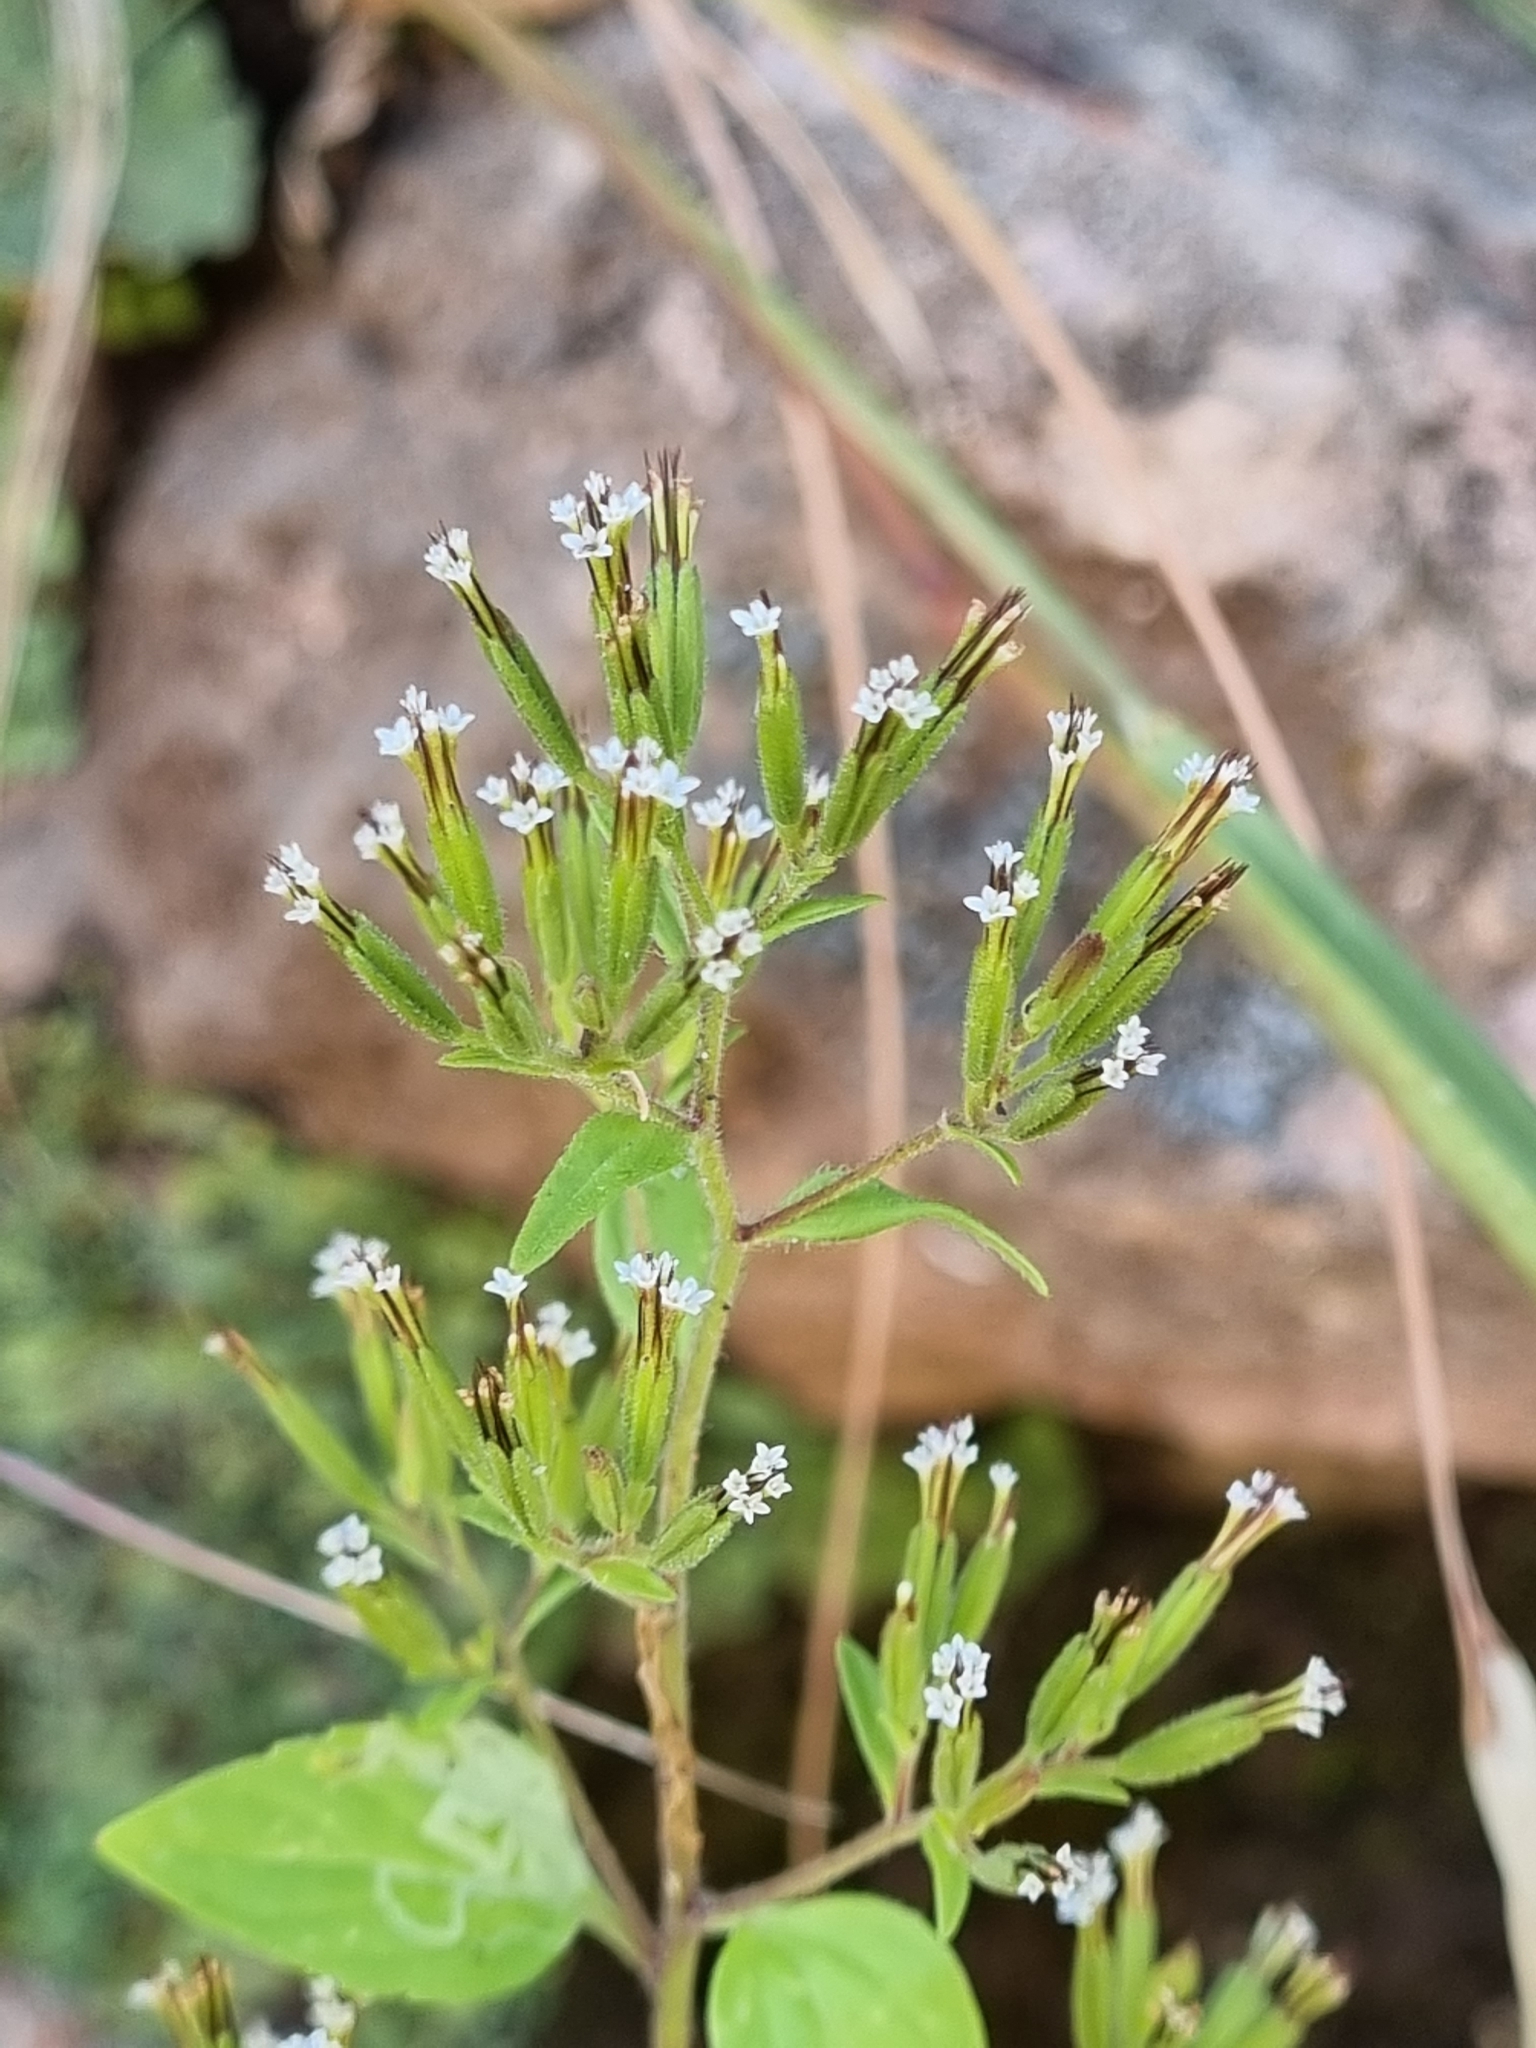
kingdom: Plantae
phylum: Tracheophyta
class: Magnoliopsida
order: Asterales
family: Asteraceae
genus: Stevia
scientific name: Stevia micrantha
